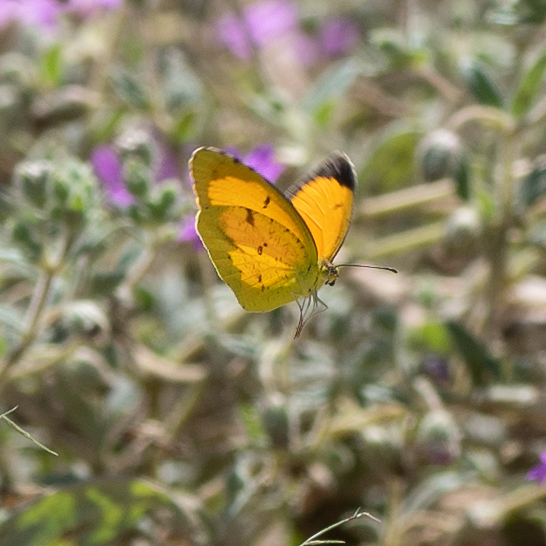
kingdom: Animalia
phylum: Arthropoda
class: Insecta
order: Lepidoptera
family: Pieridae
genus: Abaeis
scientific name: Abaeis nicippe
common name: Sleepy orange
